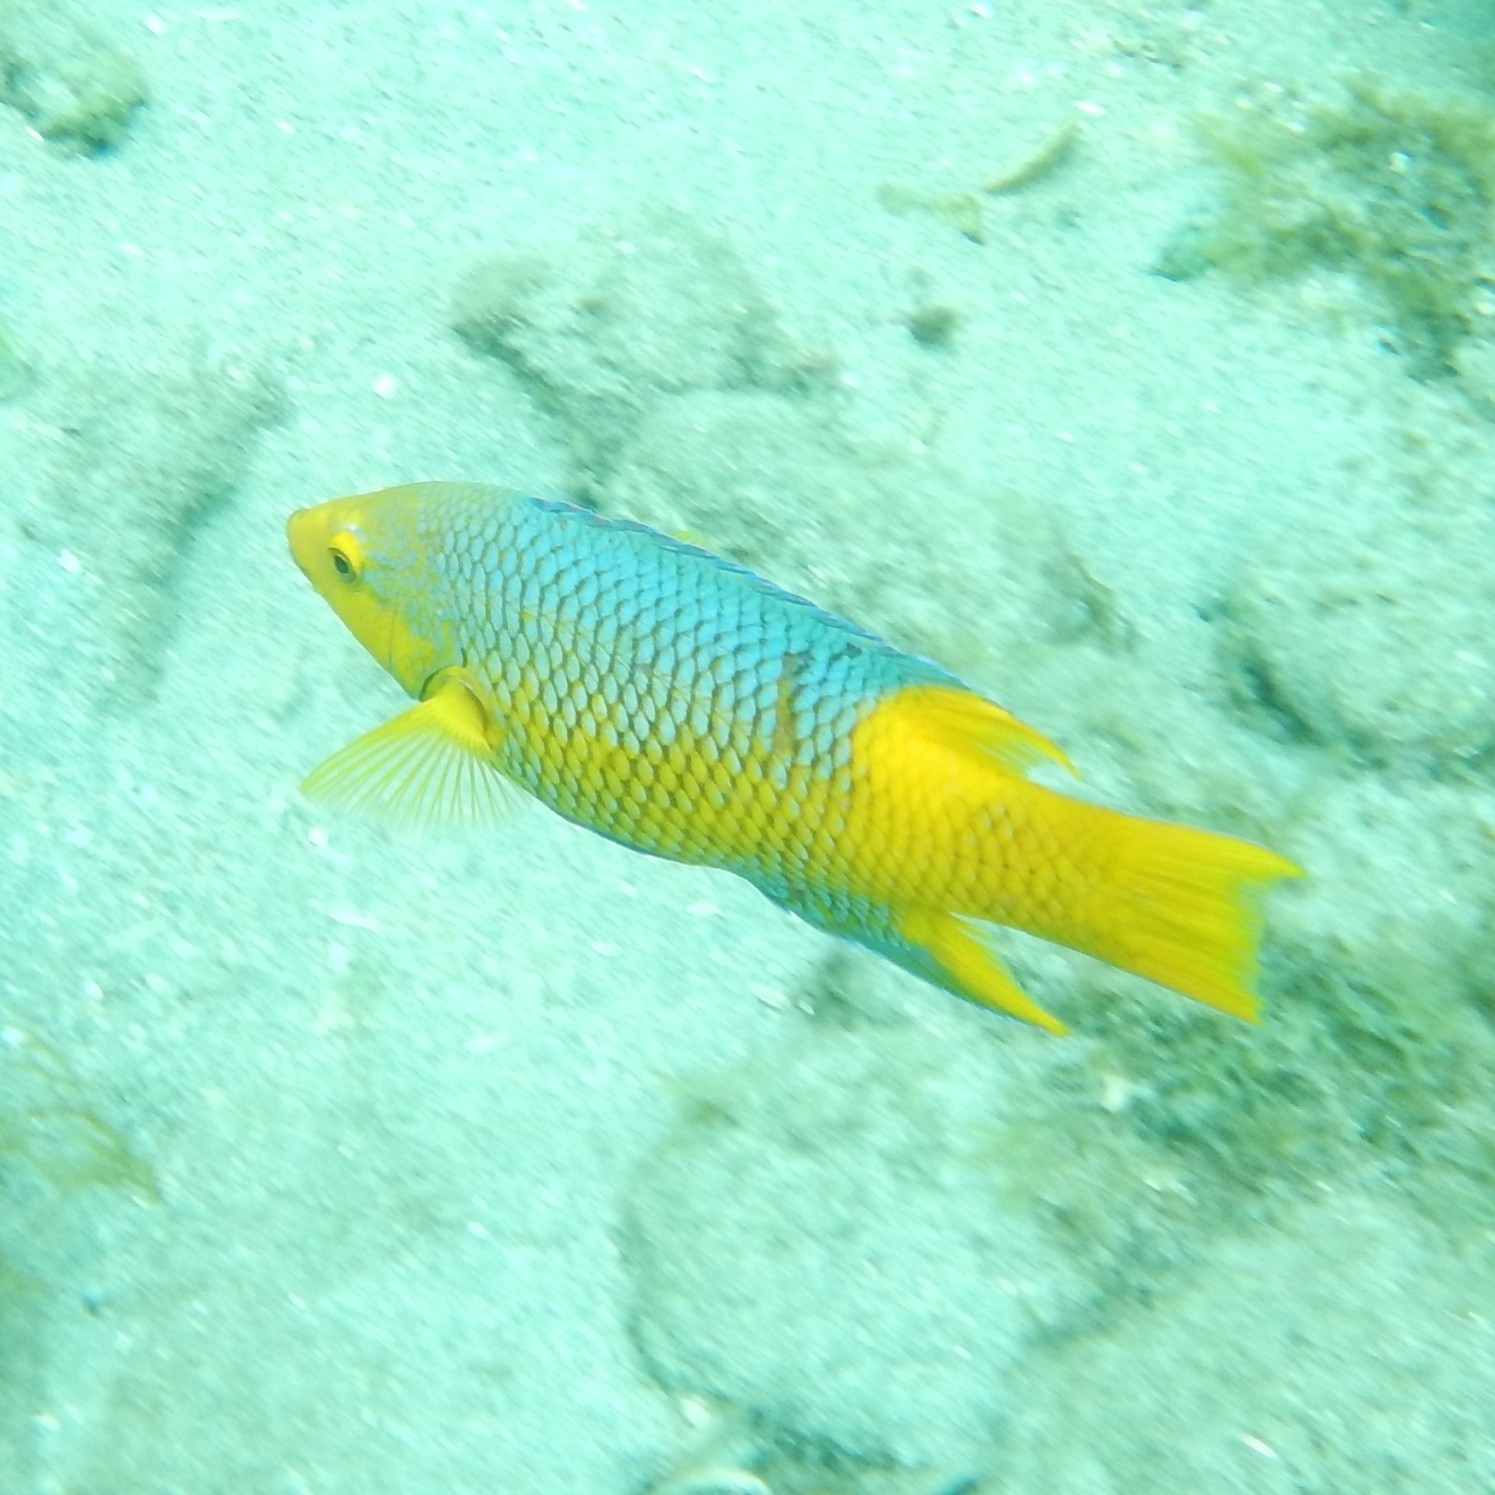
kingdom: Animalia
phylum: Chordata
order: Perciformes
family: Labridae
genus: Bodianus
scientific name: Bodianus rufus
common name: Spanish hogfish
